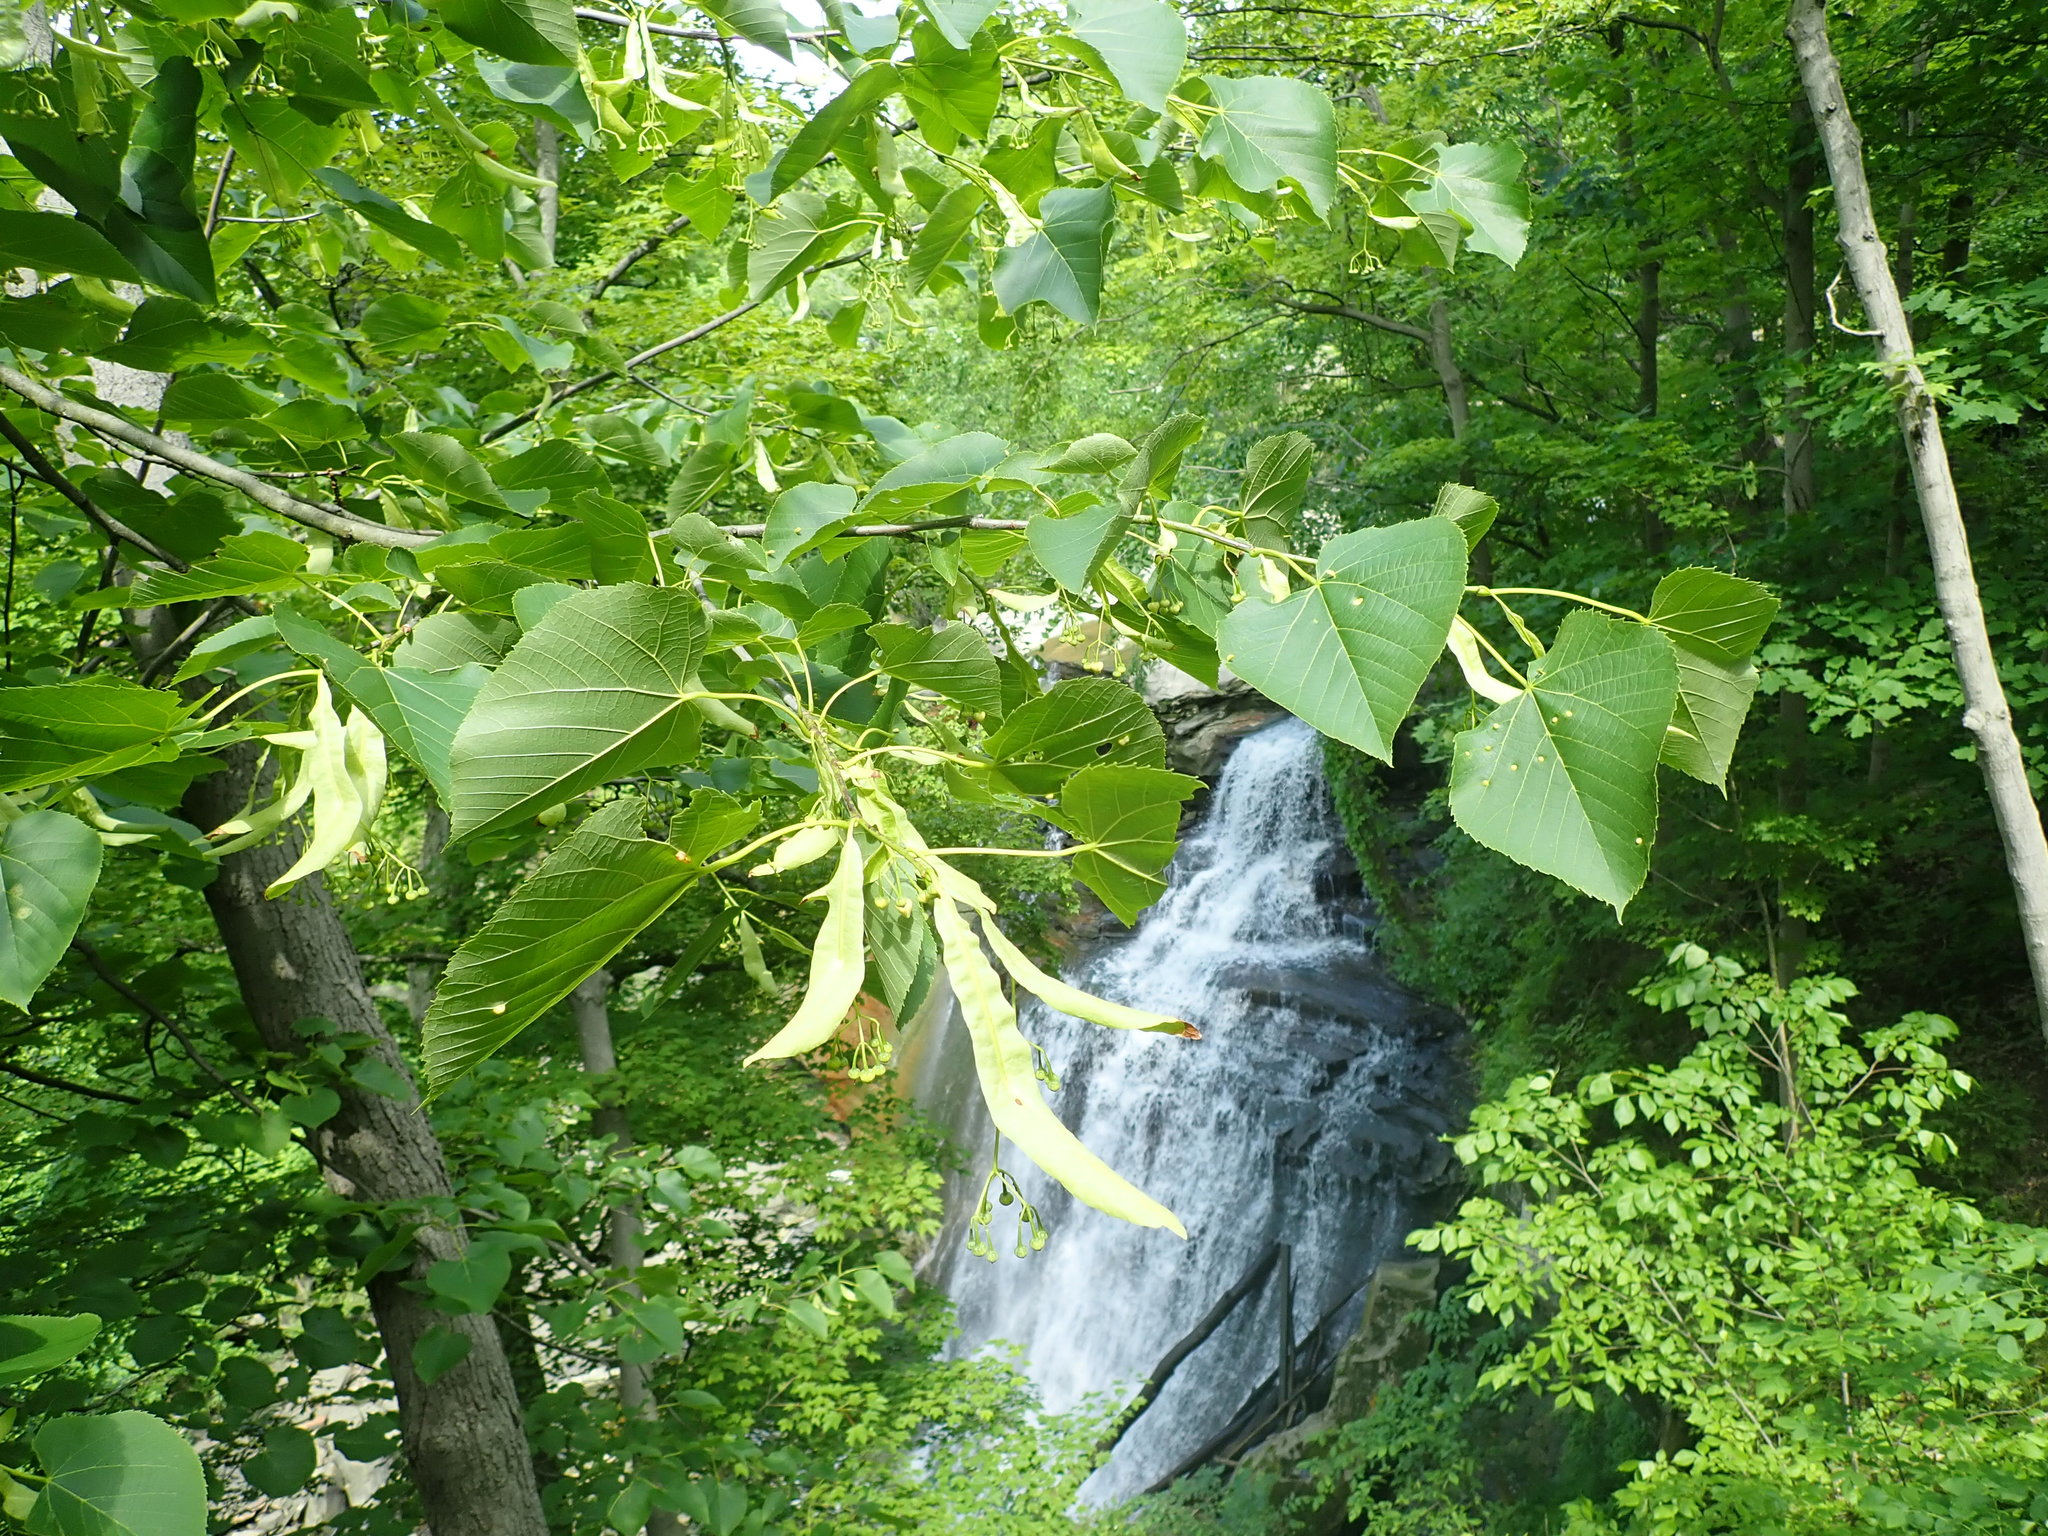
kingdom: Plantae
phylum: Tracheophyta
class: Magnoliopsida
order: Malvales
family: Malvaceae
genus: Tilia
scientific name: Tilia americana
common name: Basswood
